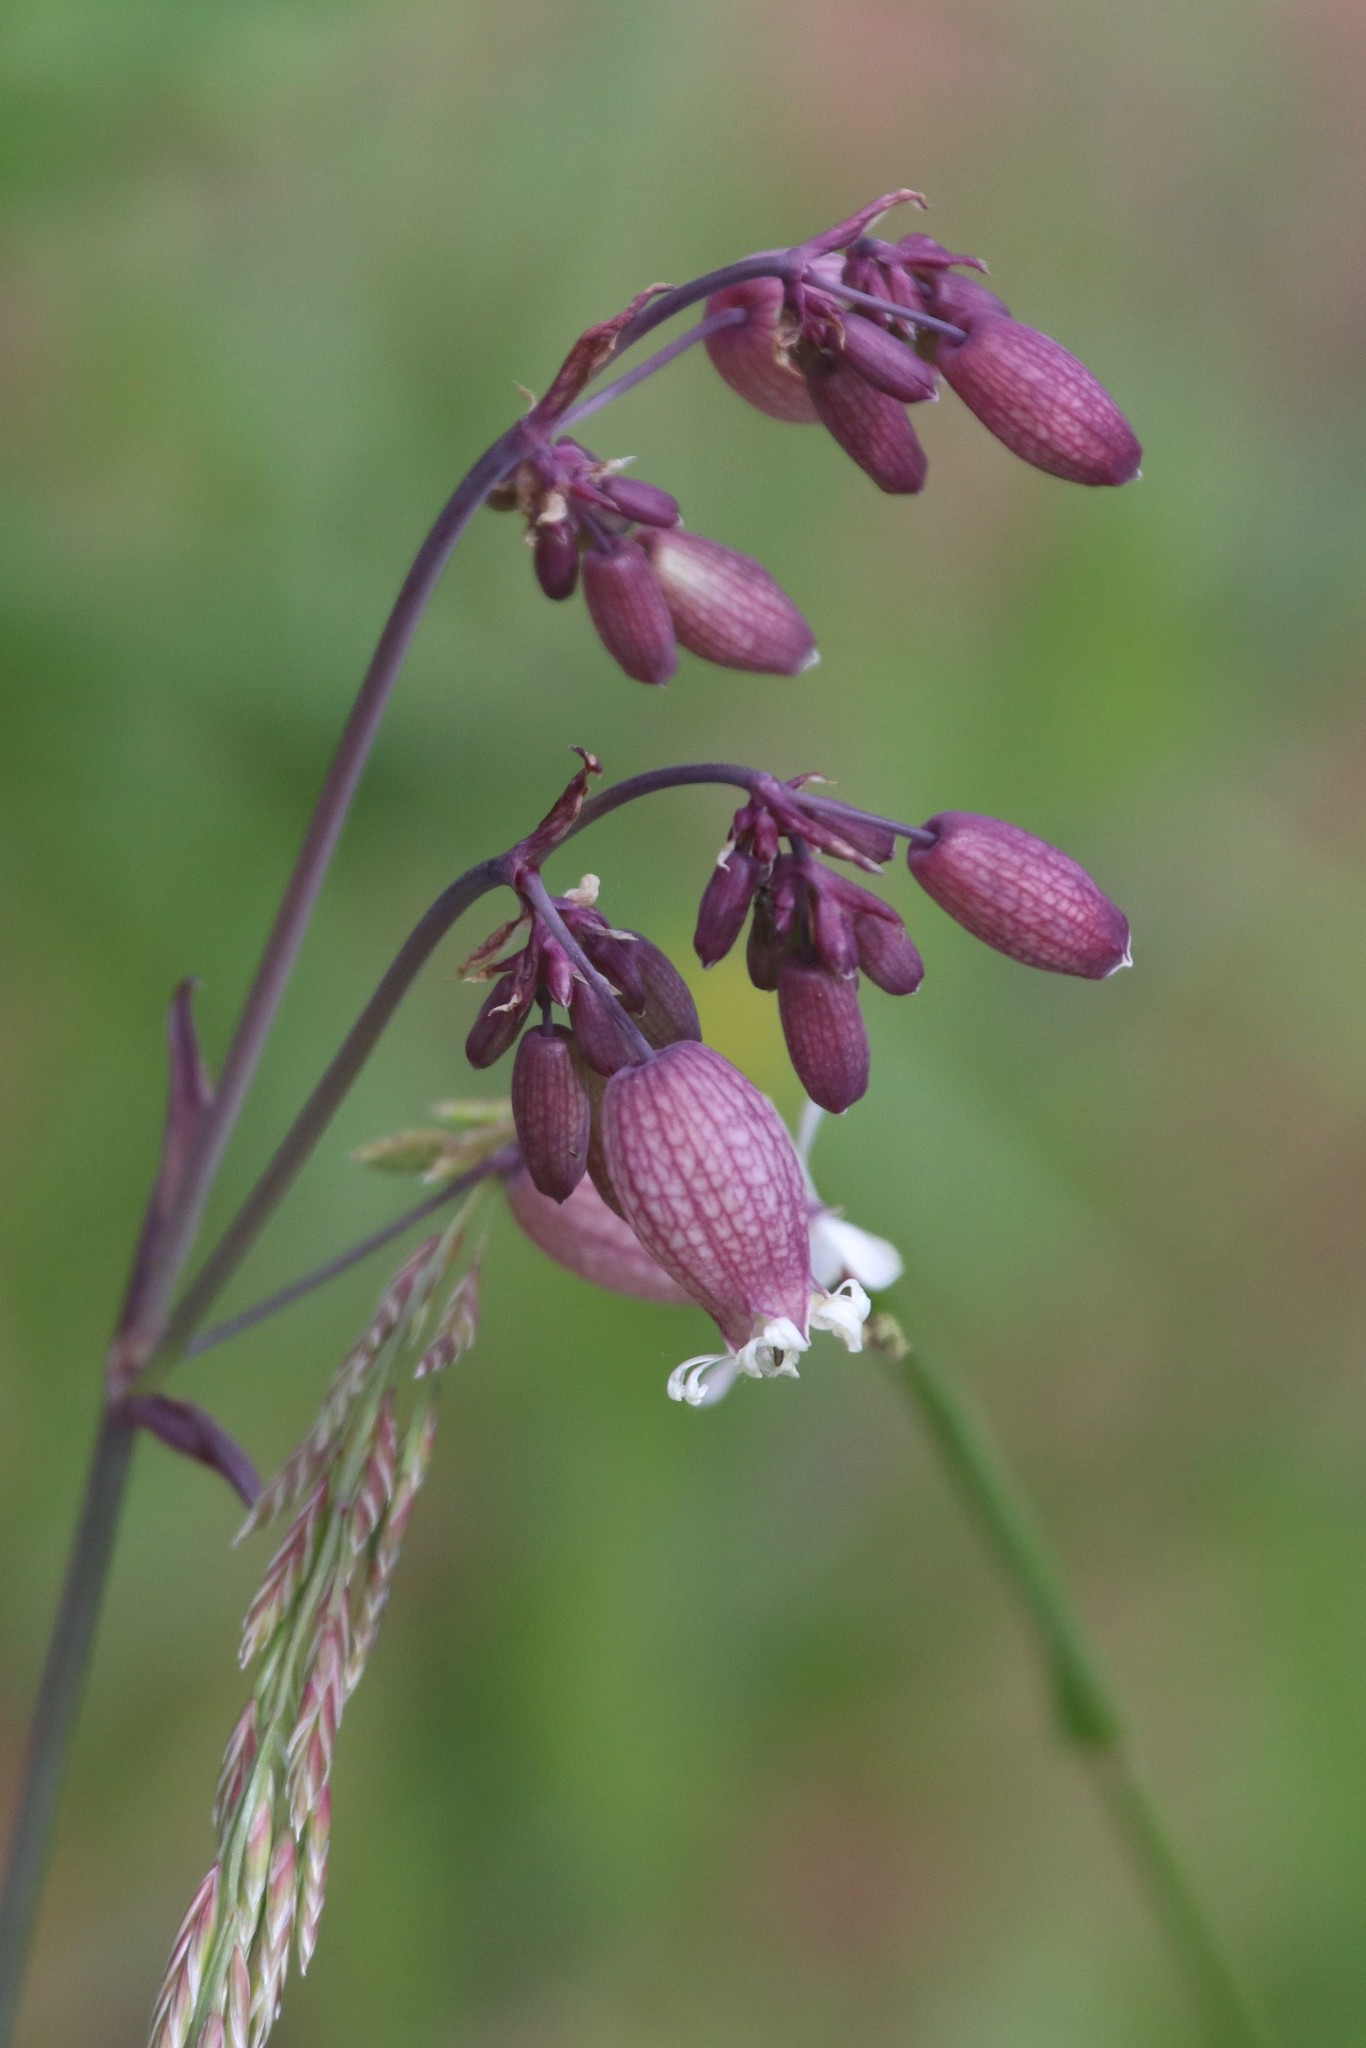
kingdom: Plantae
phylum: Tracheophyta
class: Magnoliopsida
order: Caryophyllales
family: Caryophyllaceae
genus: Silene
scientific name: Silene vulgaris
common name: Bladder campion
